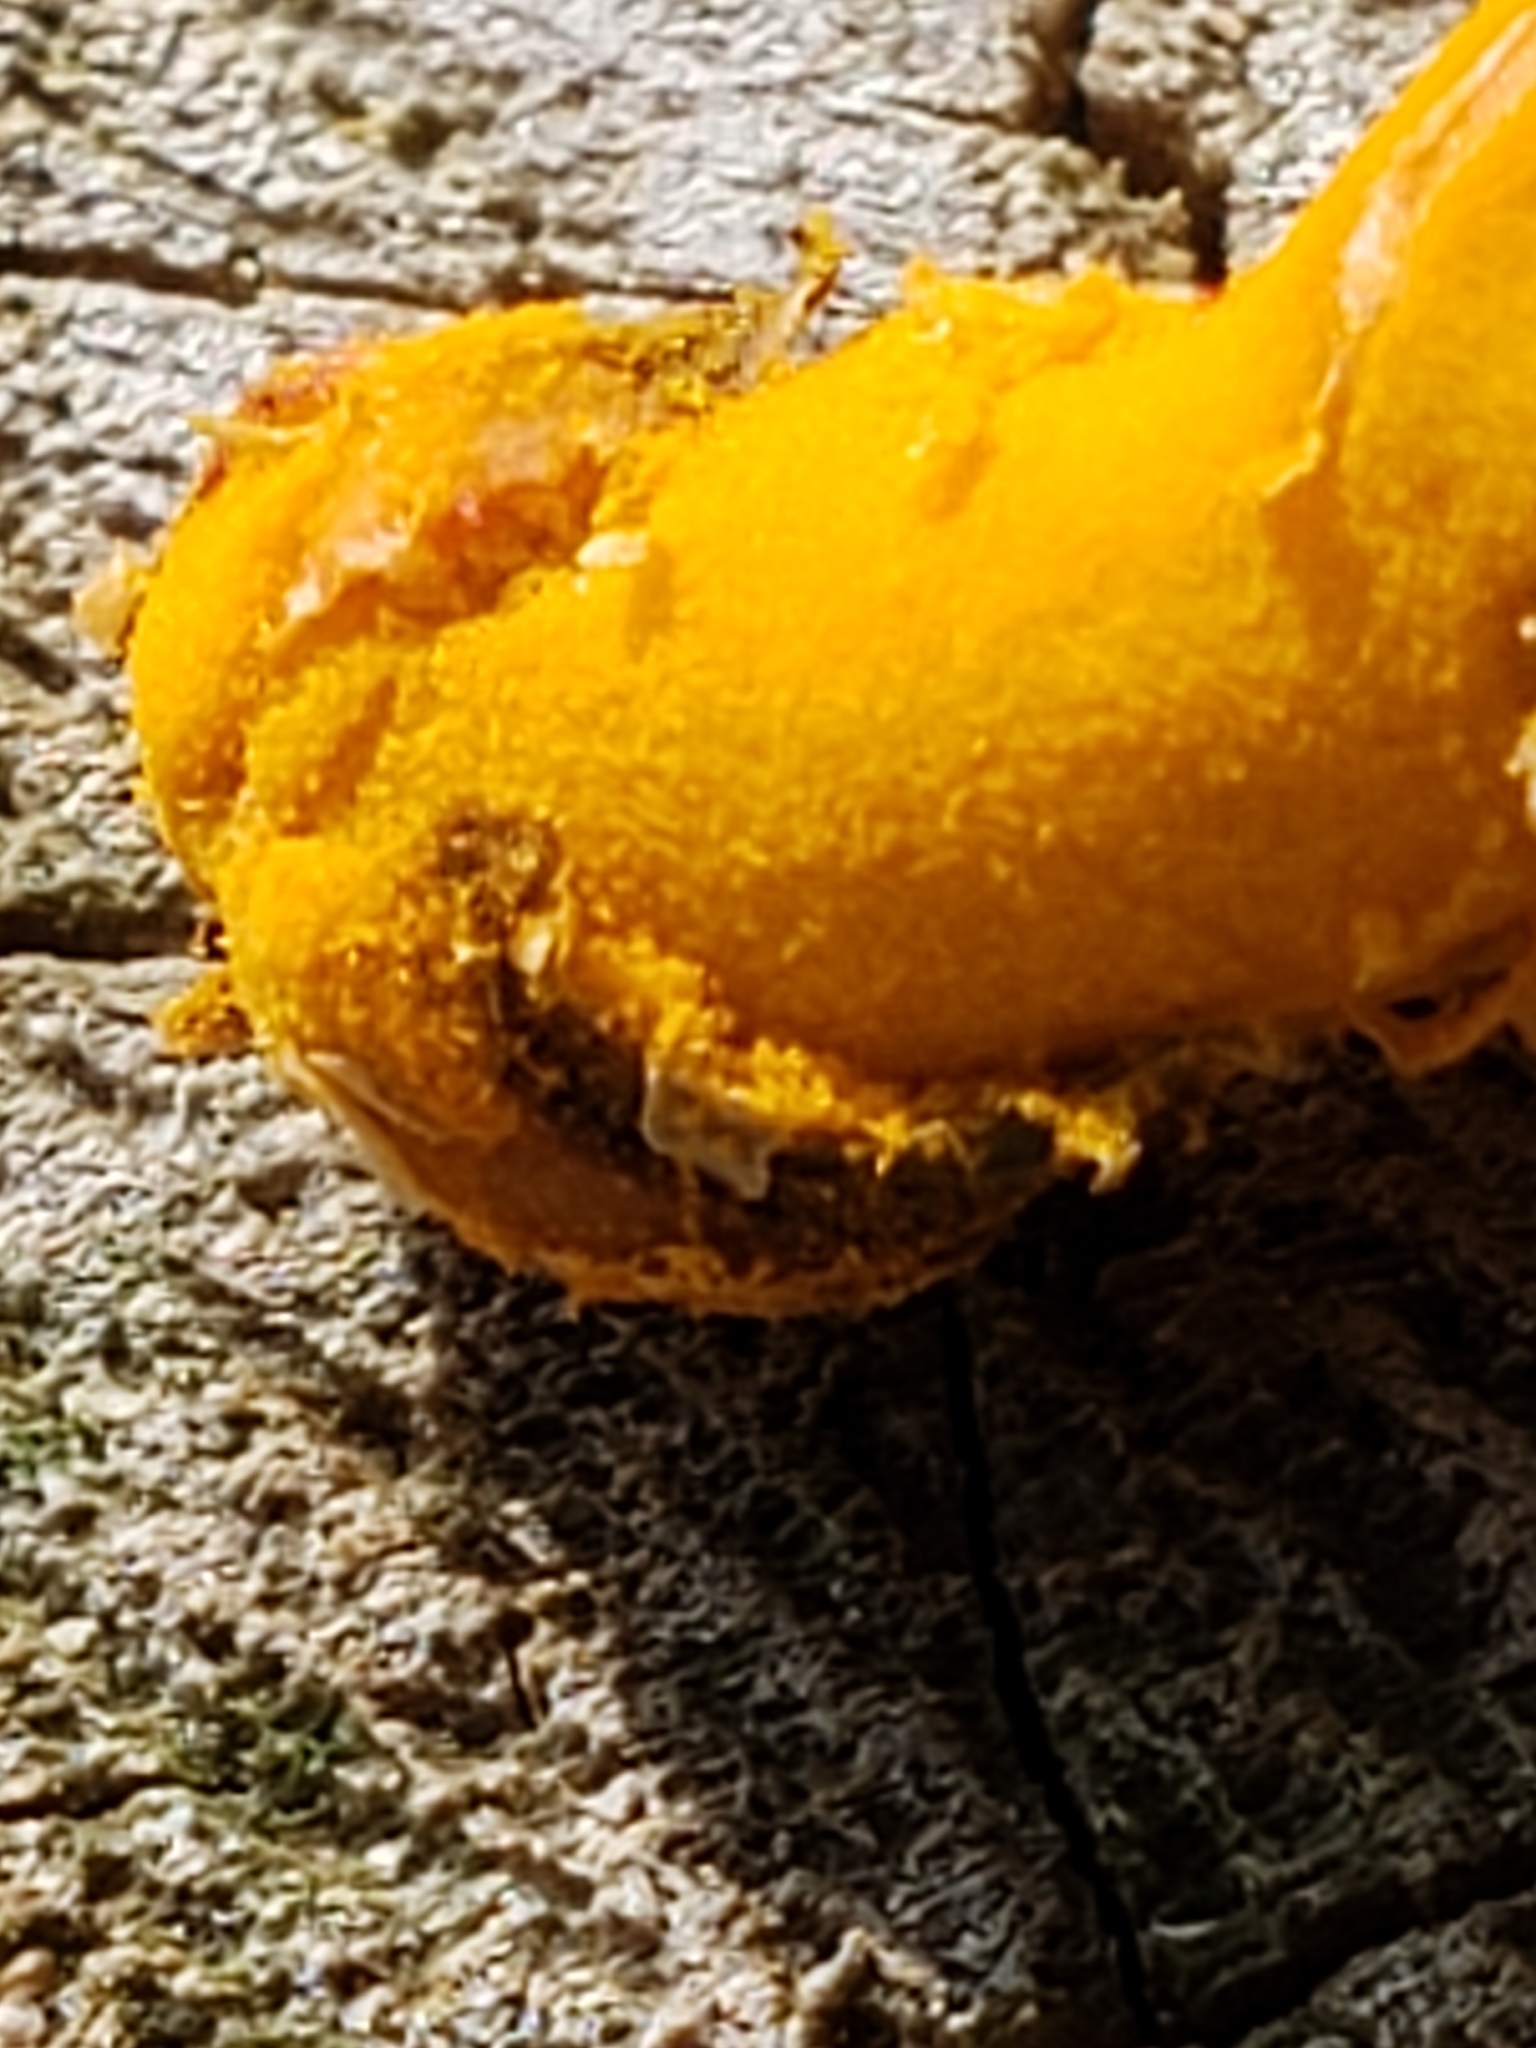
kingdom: Fungi
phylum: Basidiomycota
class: Pucciniomycetes
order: Pucciniales
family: Phragmidiaceae
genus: Phragmidium
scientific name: Phragmidium rosae-multiflorae
